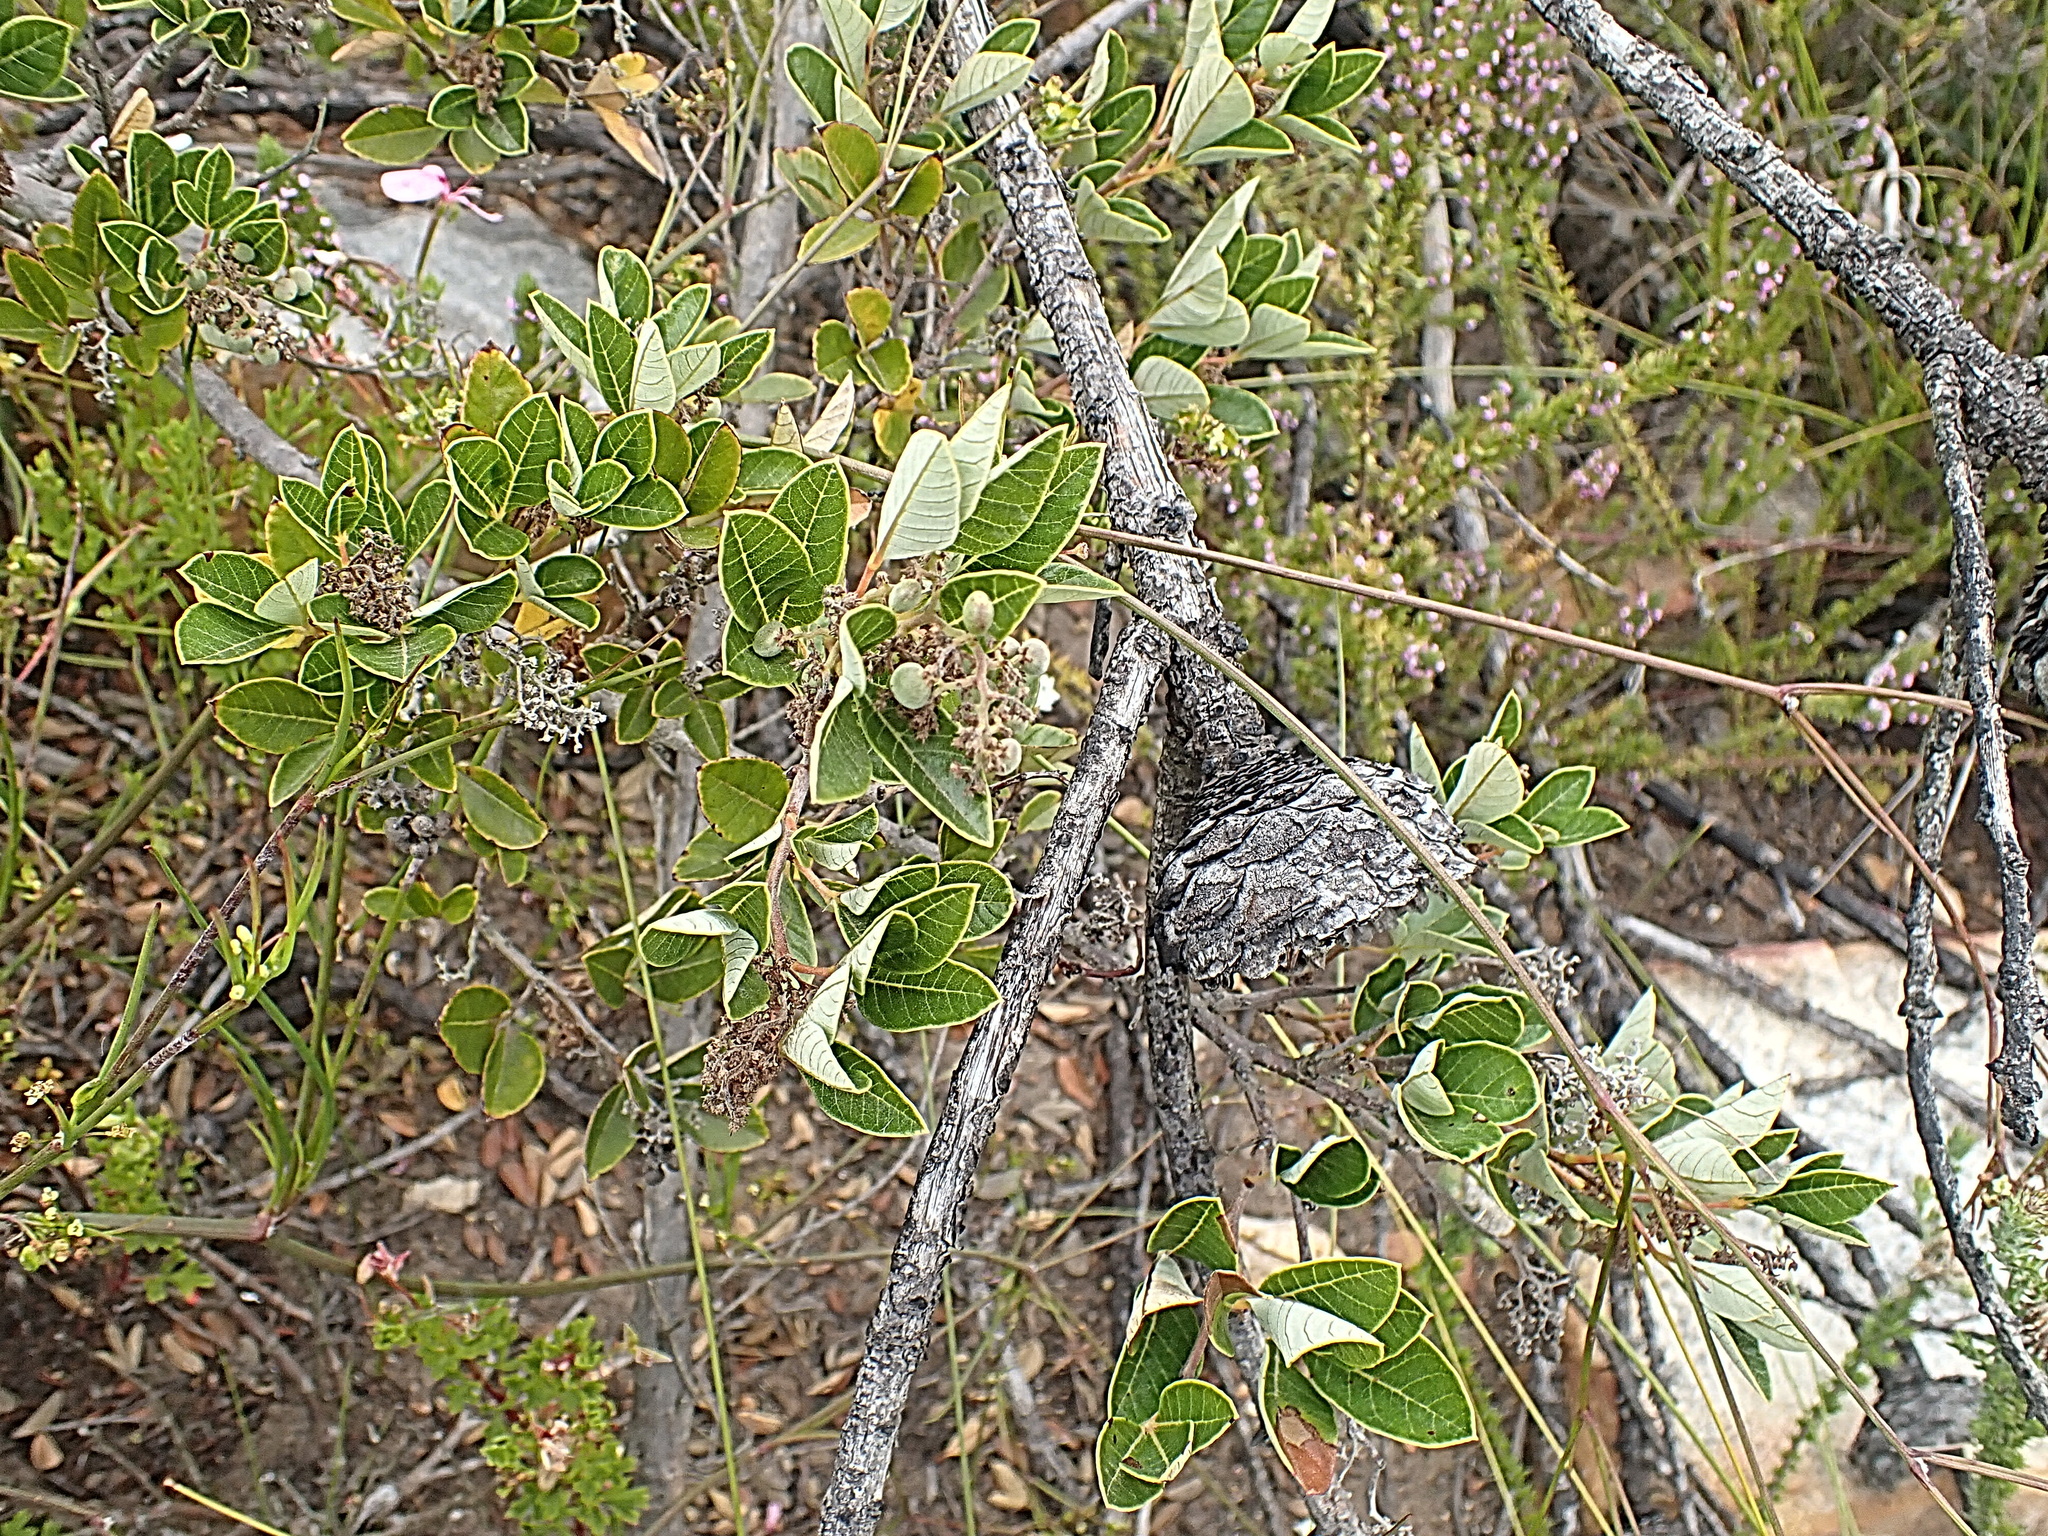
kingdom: Plantae
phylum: Tracheophyta
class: Magnoliopsida
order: Sapindales
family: Anacardiaceae
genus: Searsia
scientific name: Searsia tomentosa
